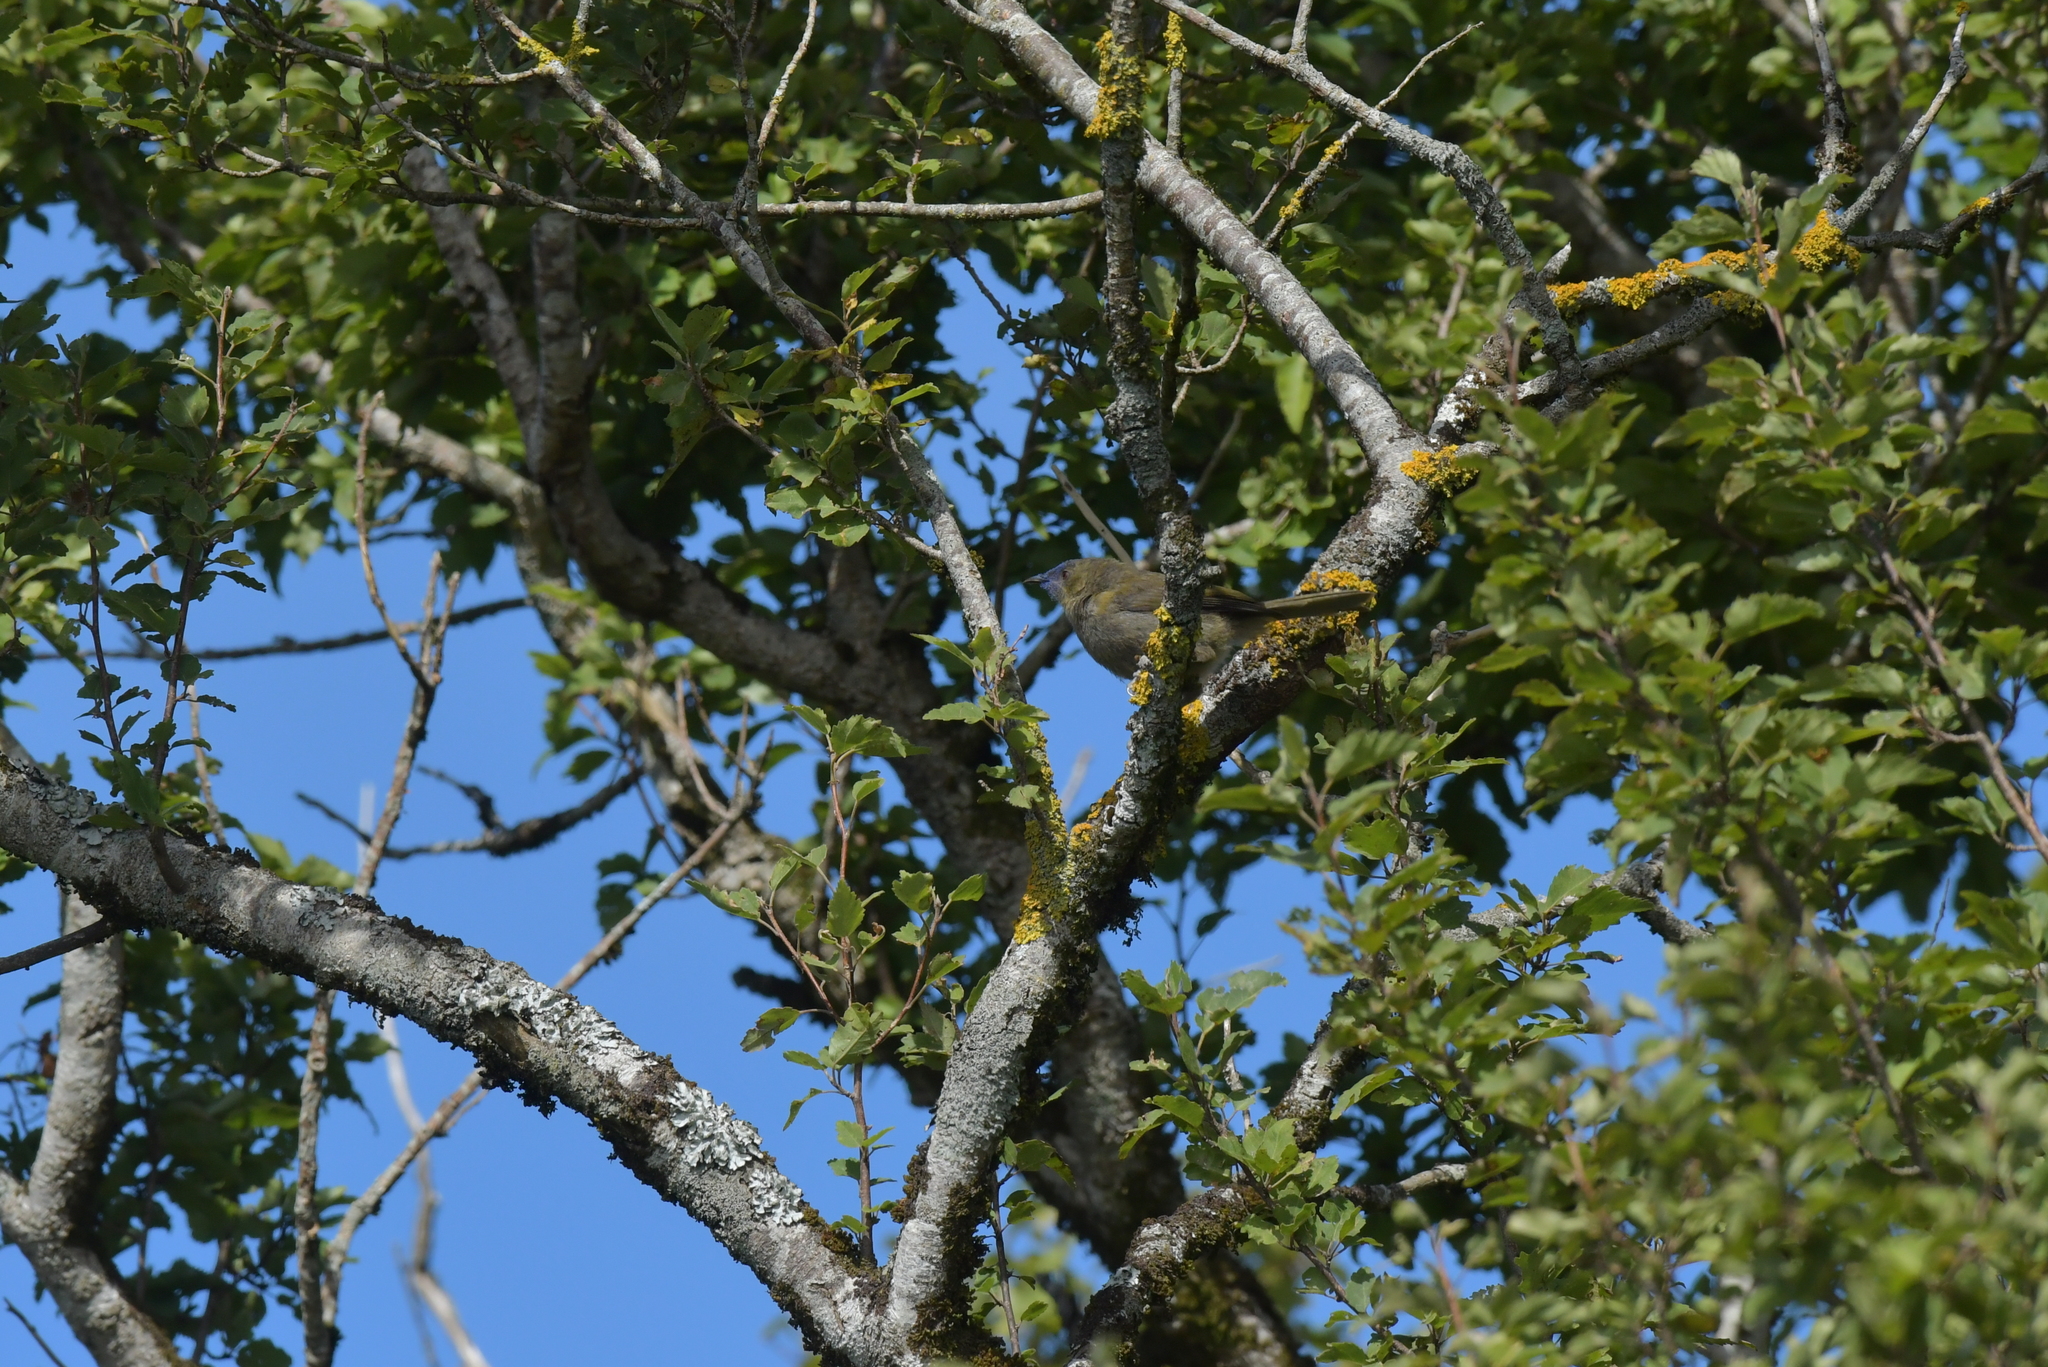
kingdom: Animalia
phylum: Chordata
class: Aves
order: Passeriformes
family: Meliphagidae
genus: Anthornis
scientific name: Anthornis melanura
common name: New zealand bellbird
